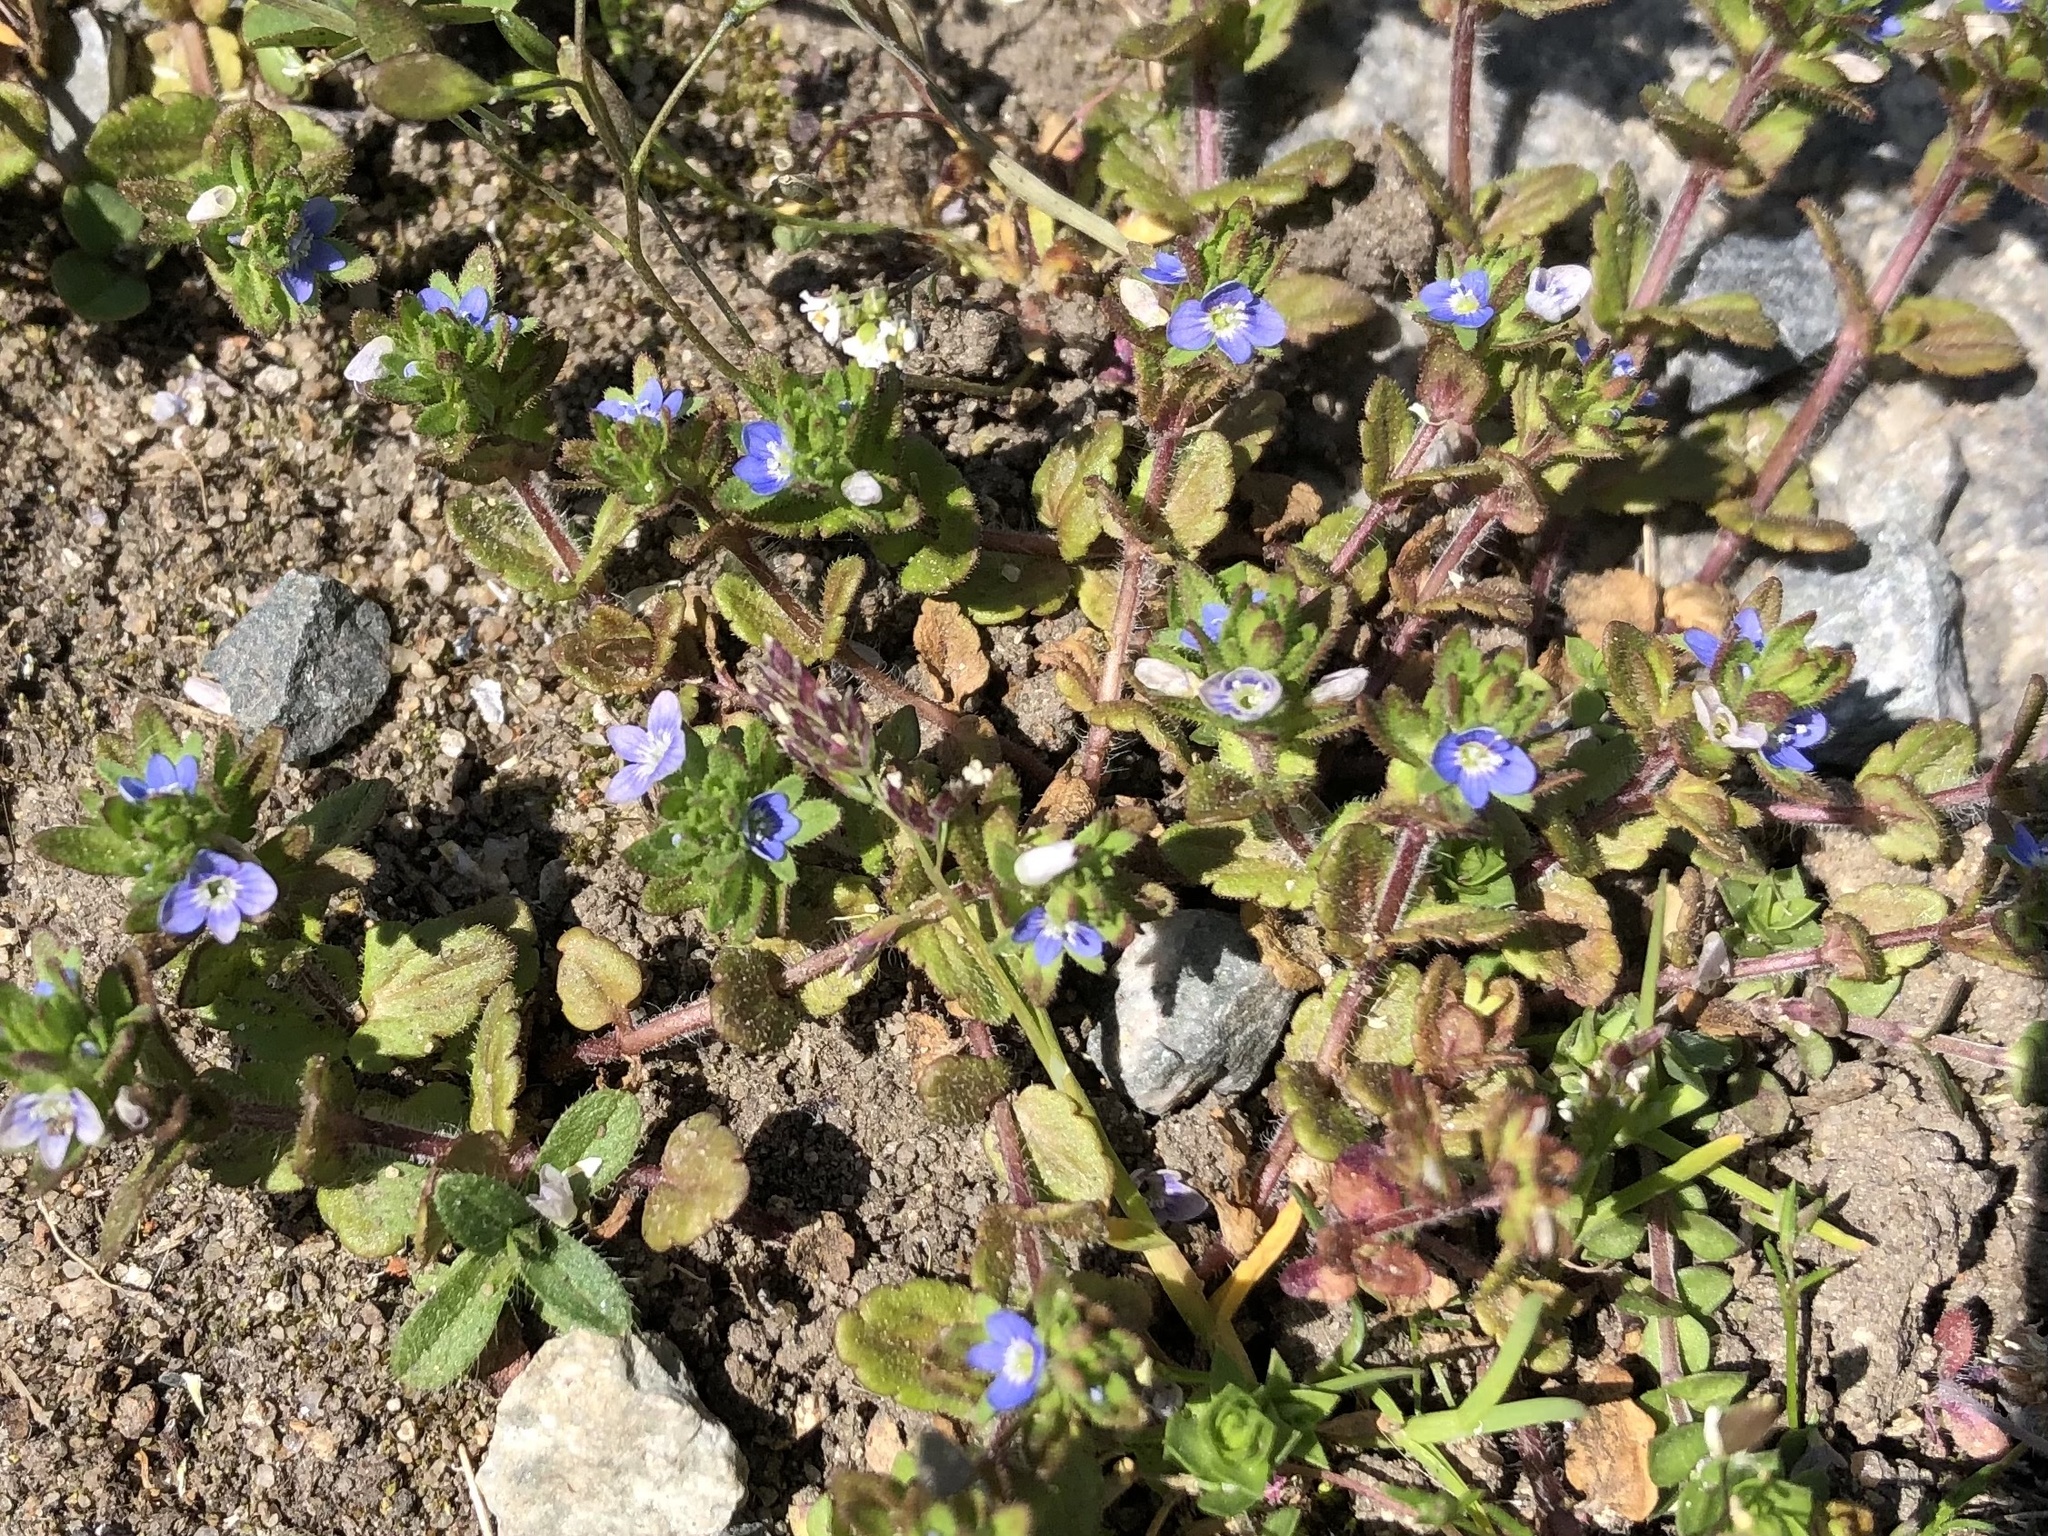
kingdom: Plantae
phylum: Tracheophyta
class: Magnoliopsida
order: Lamiales
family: Plantaginaceae
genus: Veronica
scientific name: Veronica arvensis
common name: Corn speedwell
